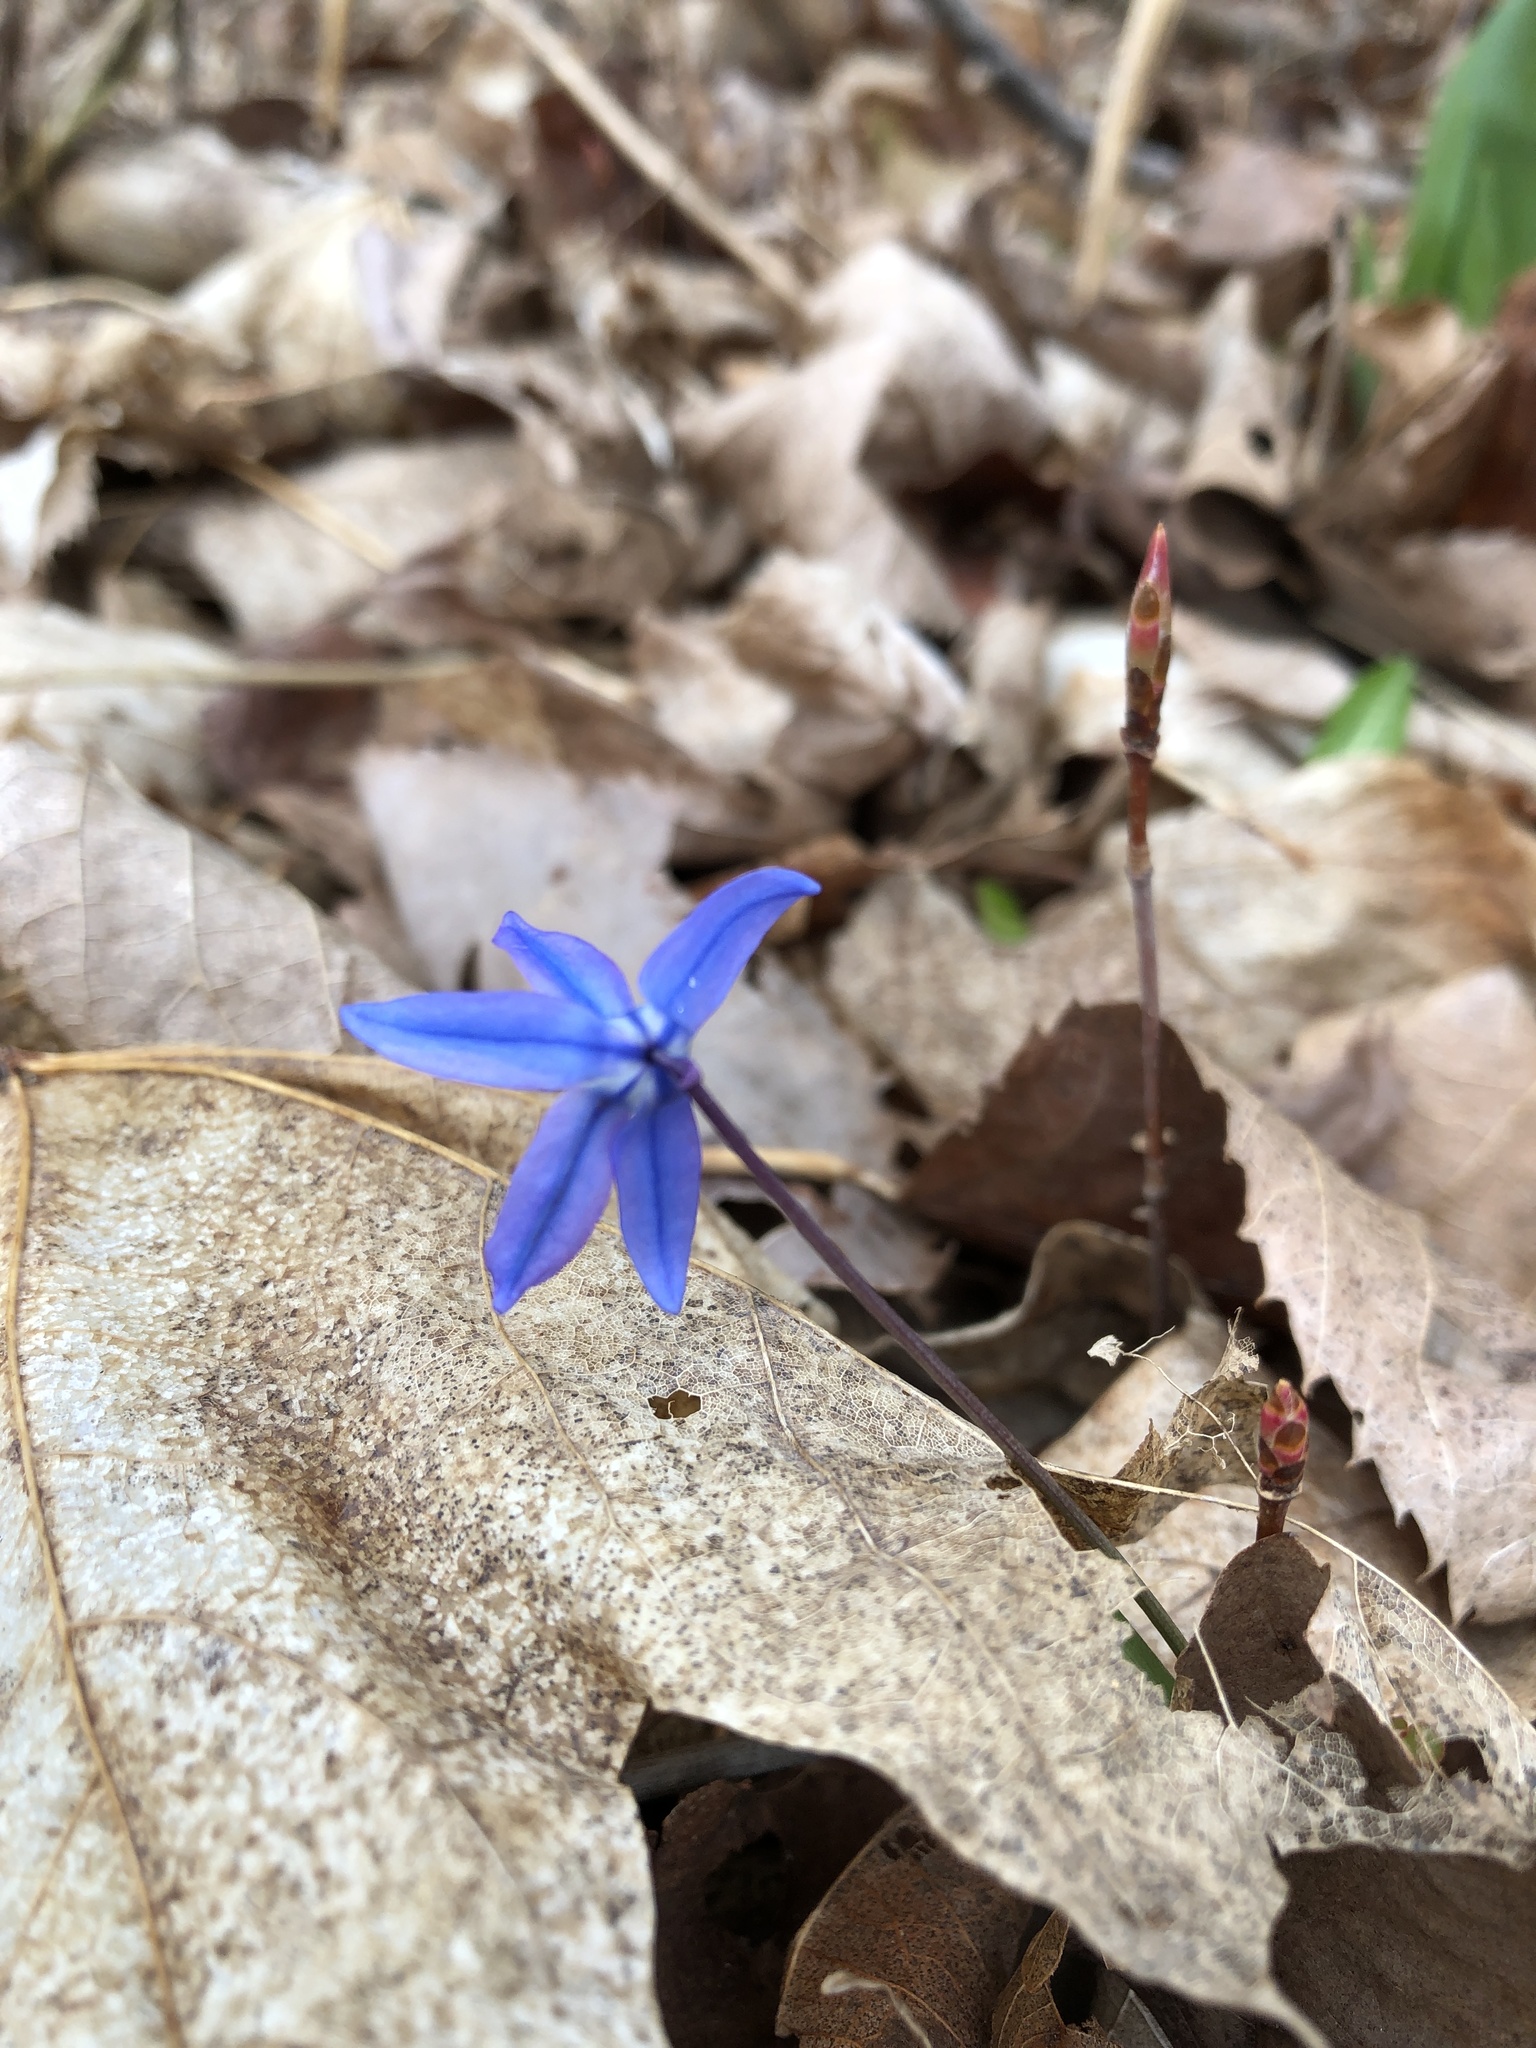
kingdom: Plantae
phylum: Tracheophyta
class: Liliopsida
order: Asparagales
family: Asparagaceae
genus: Scilla
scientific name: Scilla siberica
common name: Siberian squill
